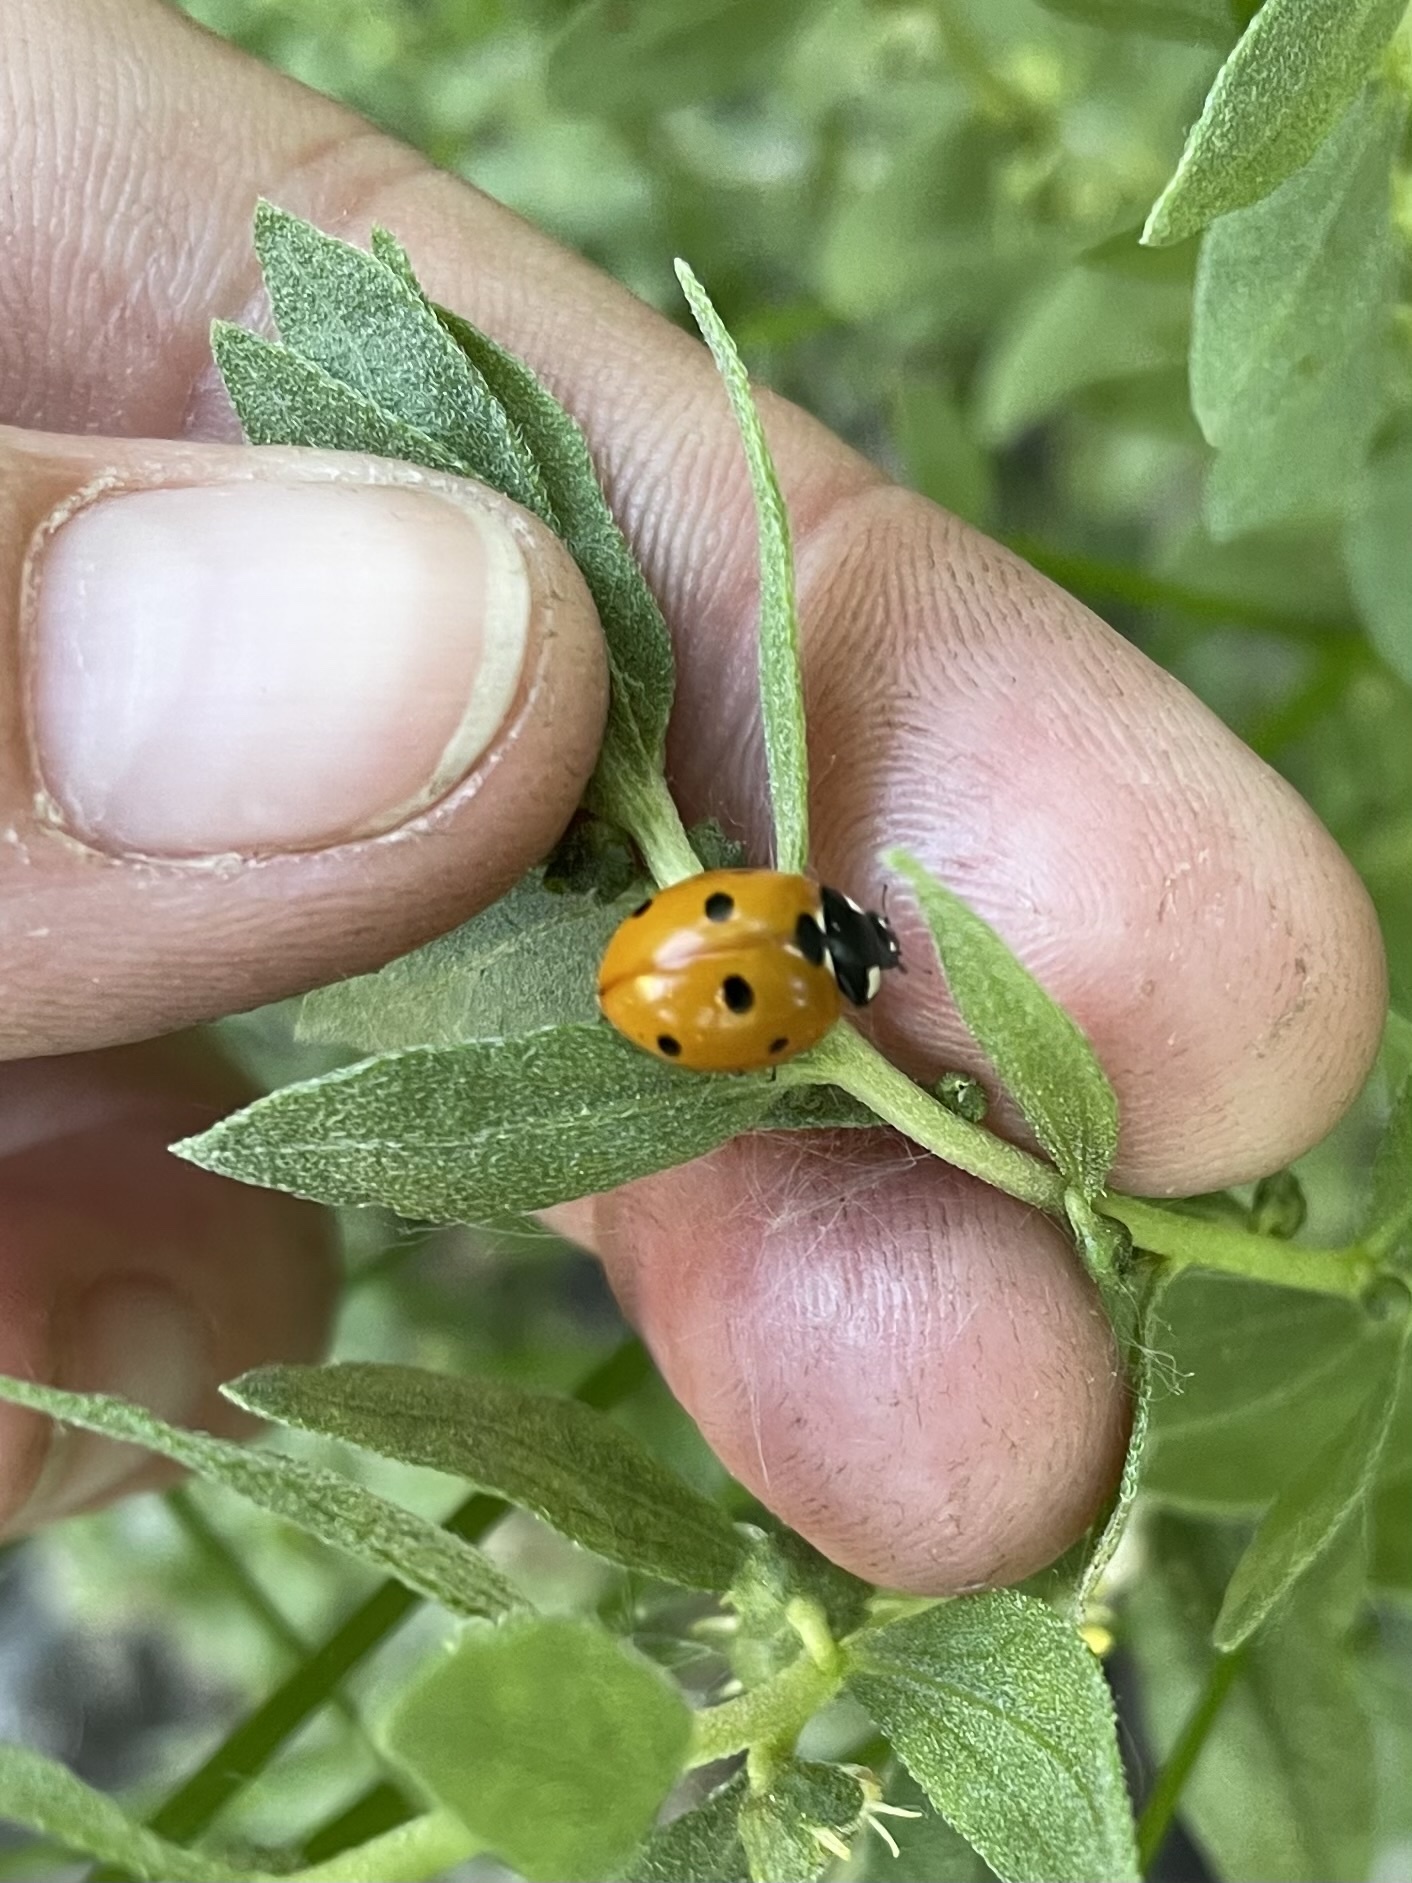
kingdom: Animalia
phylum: Arthropoda
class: Insecta
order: Coleoptera
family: Coccinellidae
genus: Coccinella
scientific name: Coccinella septempunctata
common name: Sevenspotted lady beetle
